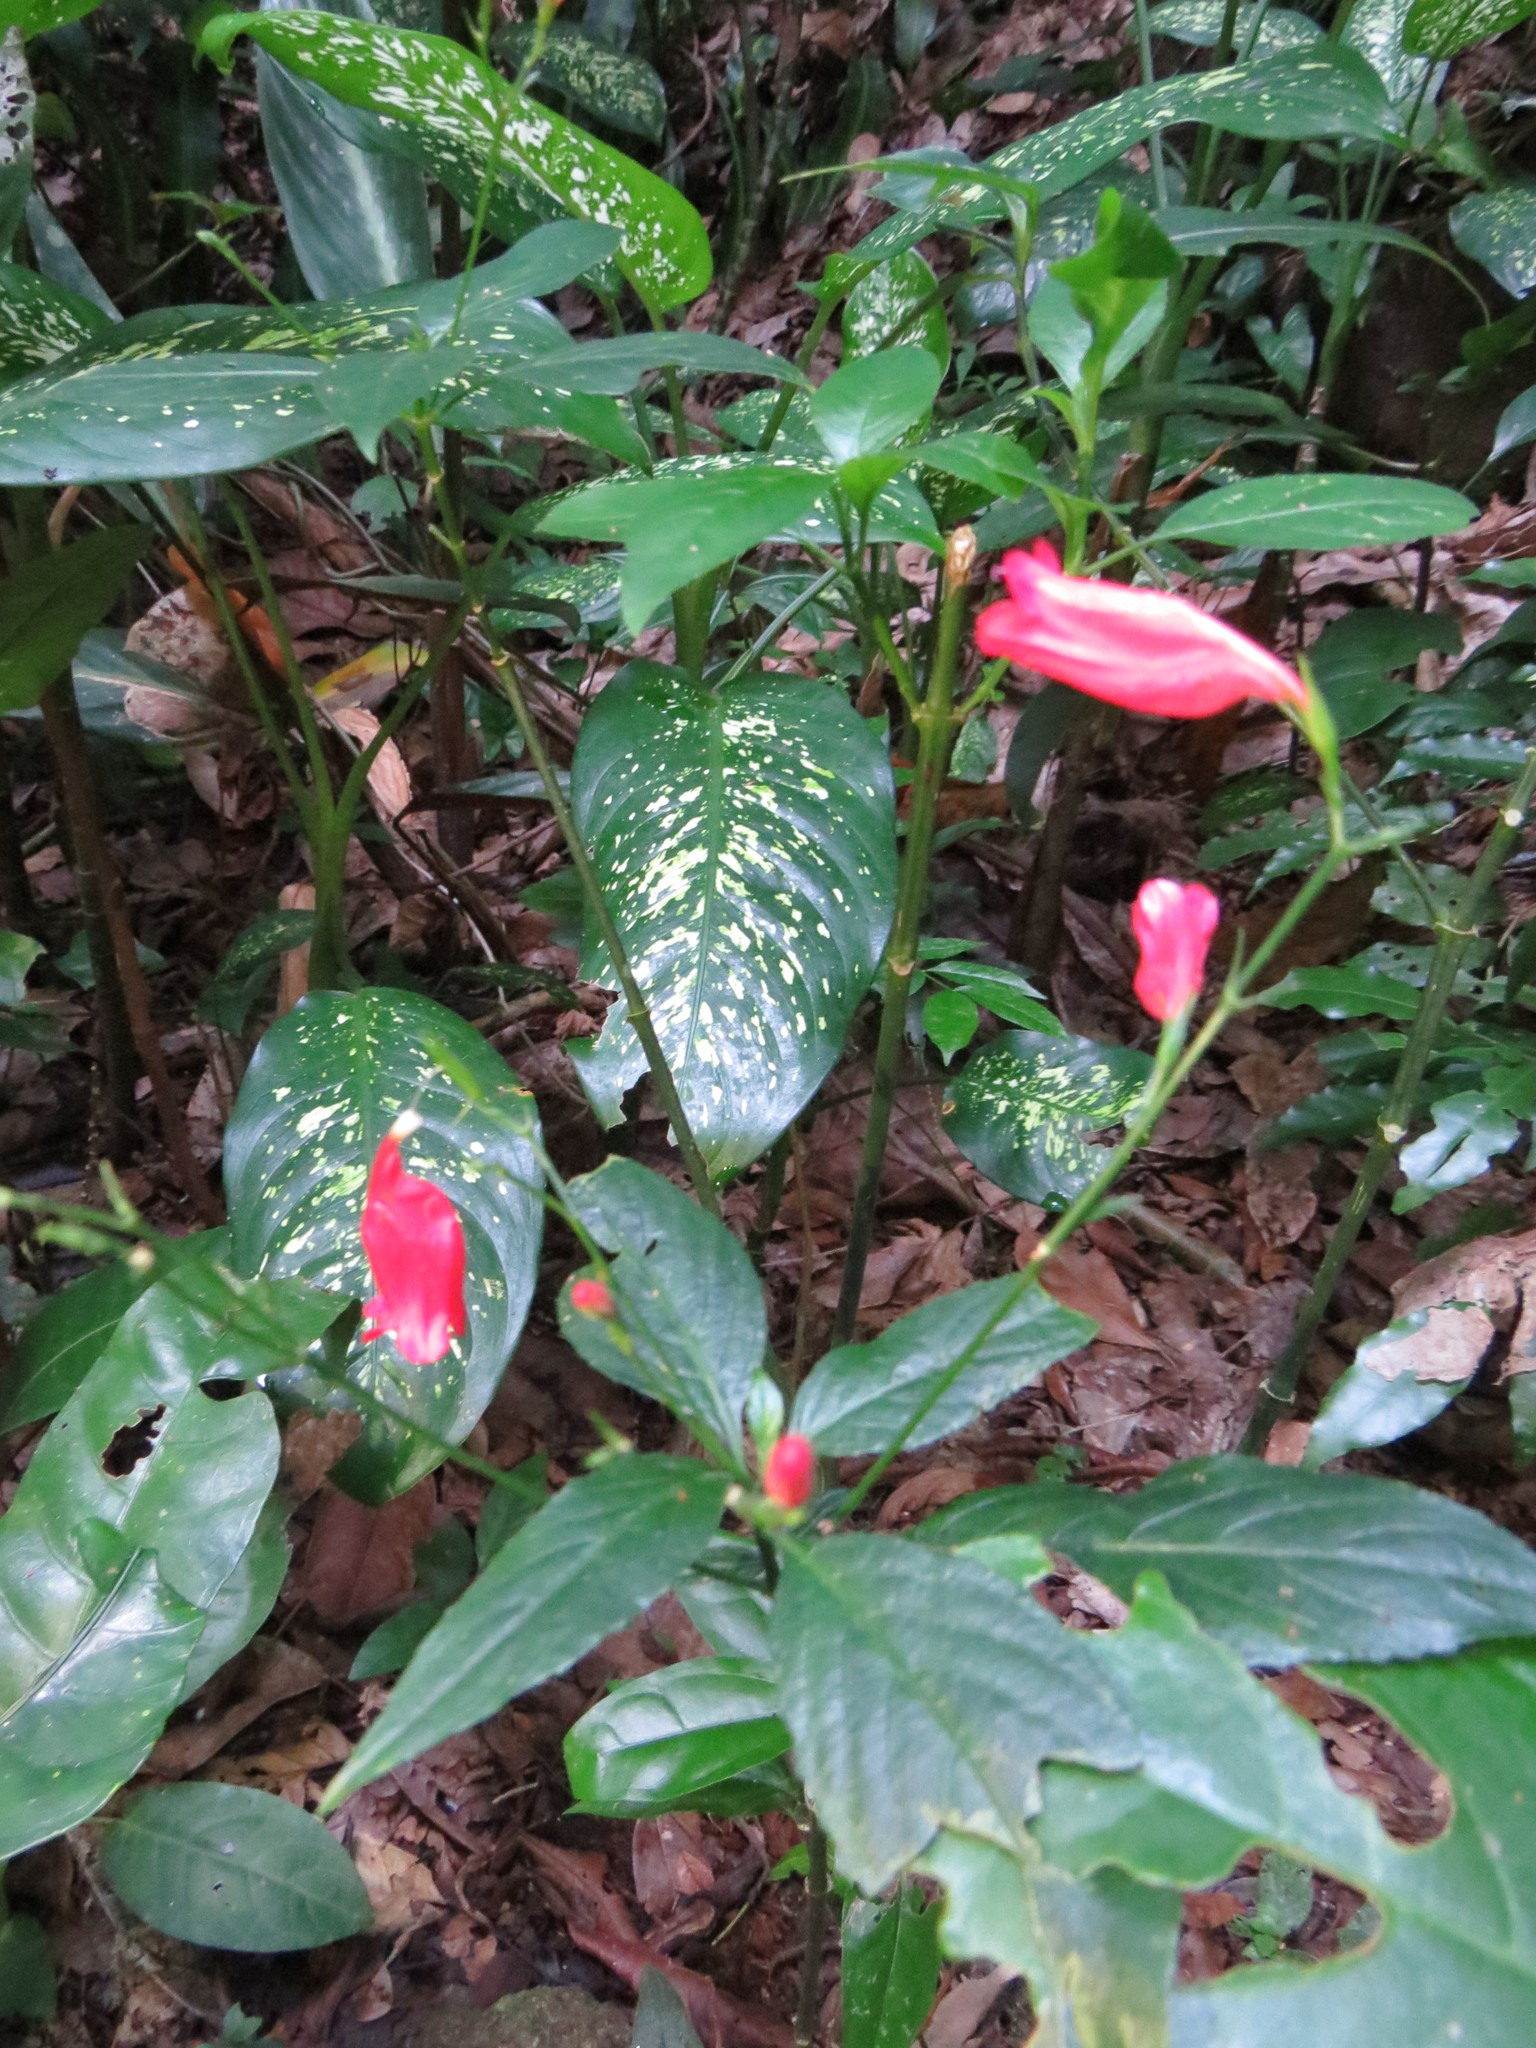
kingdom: Plantae
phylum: Tracheophyta
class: Magnoliopsida
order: Lamiales
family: Acanthaceae
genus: Ruellia
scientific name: Ruellia brevifolia
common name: Tropical wild petunia
